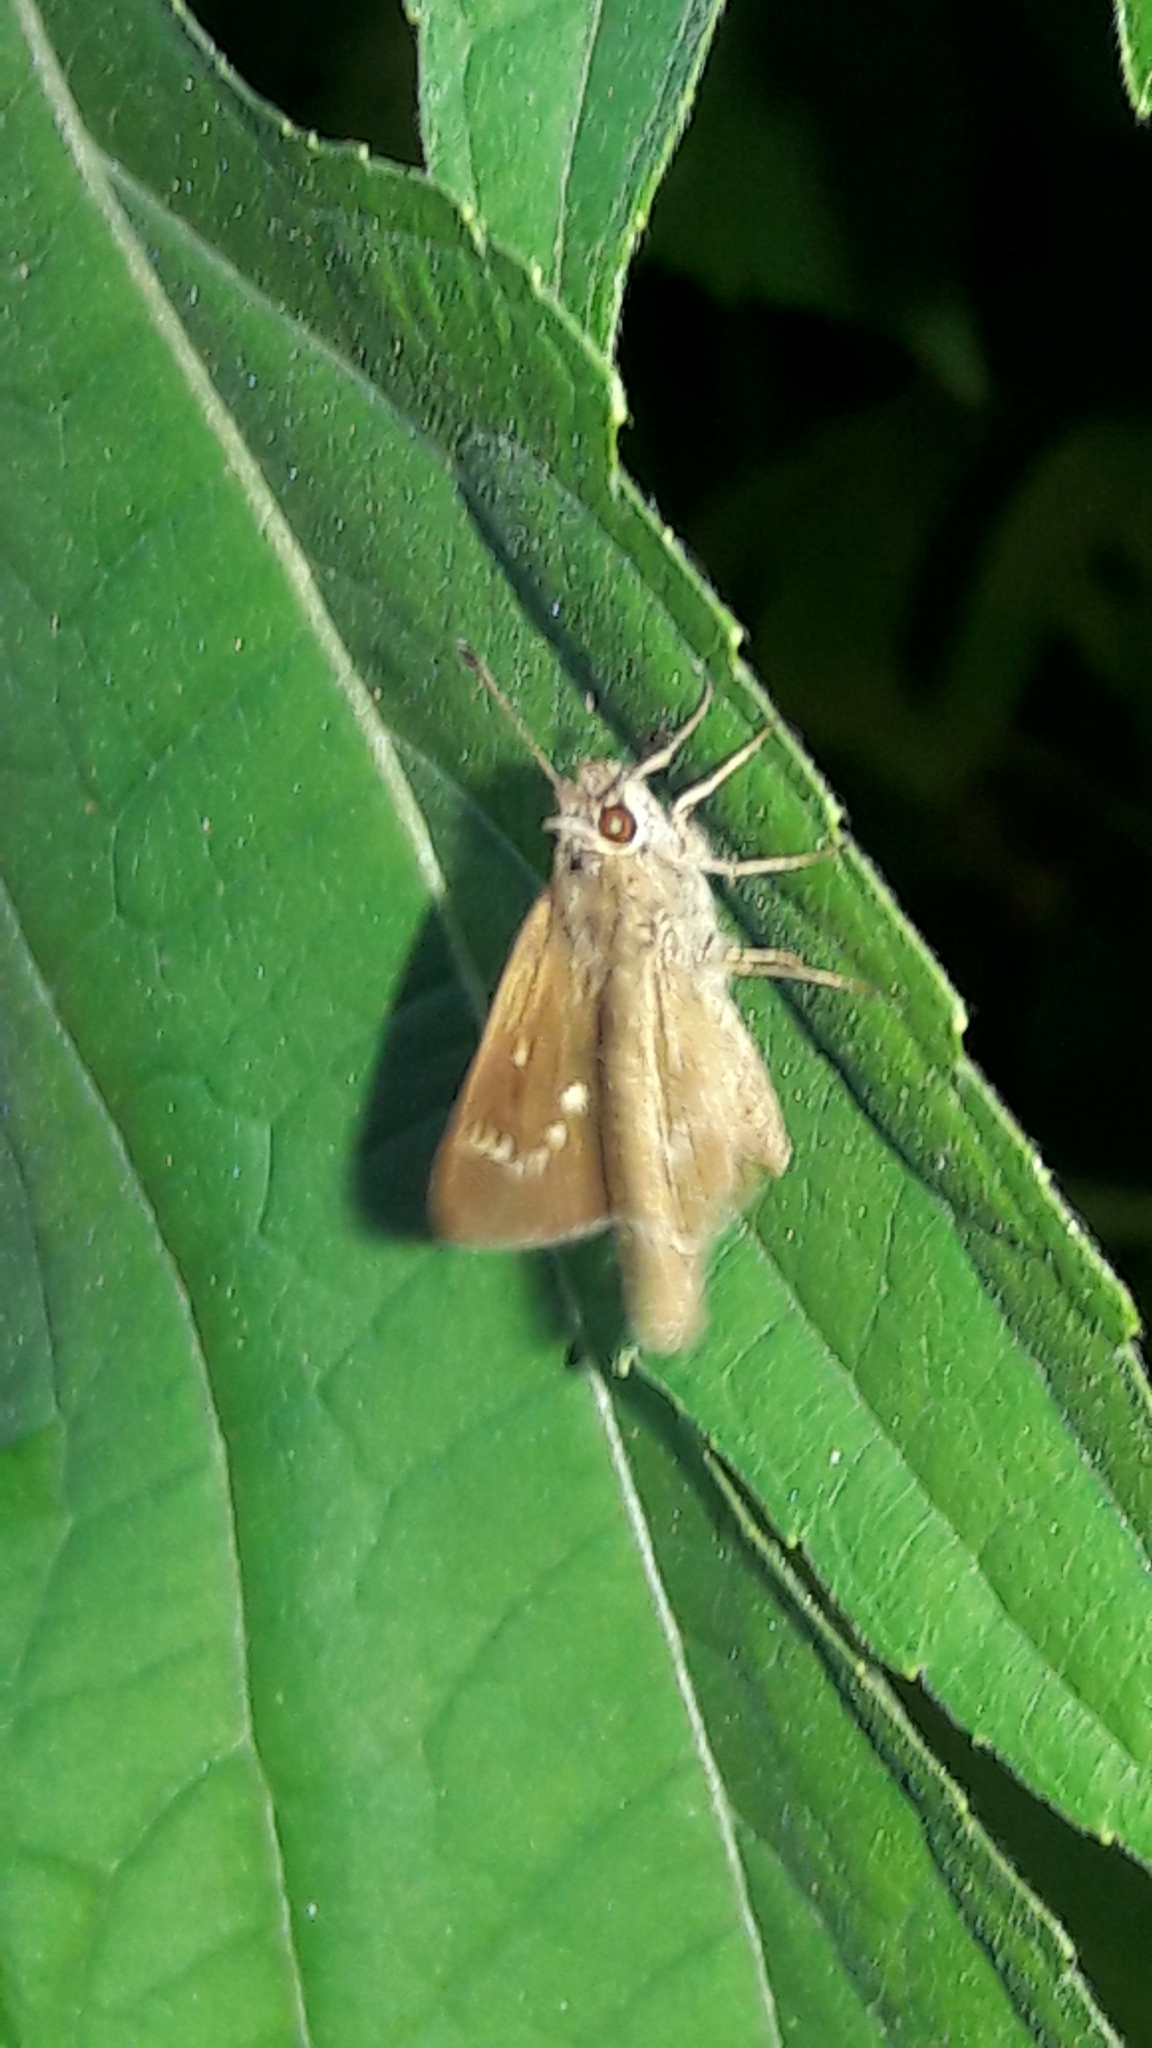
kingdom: Animalia
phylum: Arthropoda
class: Insecta
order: Lepidoptera
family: Hesperiidae
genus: Lerodea
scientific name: Lerodea eufala
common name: Eufala skipper
